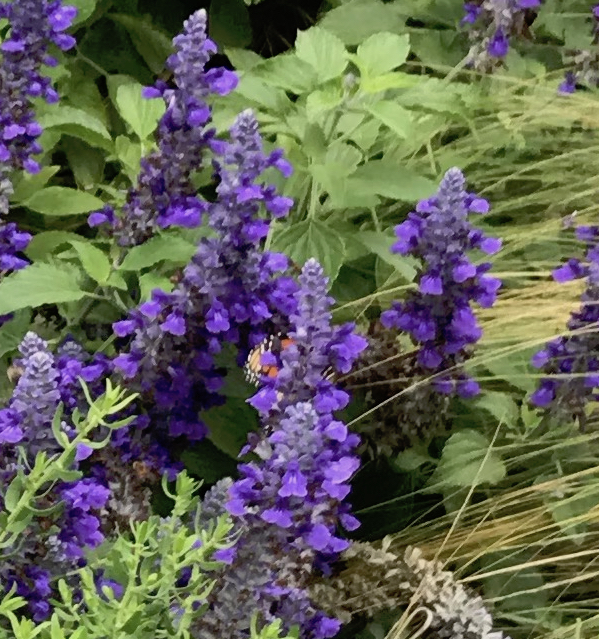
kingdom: Animalia
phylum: Arthropoda
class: Insecta
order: Lepidoptera
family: Nymphalidae
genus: Danaus
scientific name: Danaus plexippus
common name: Monarch
